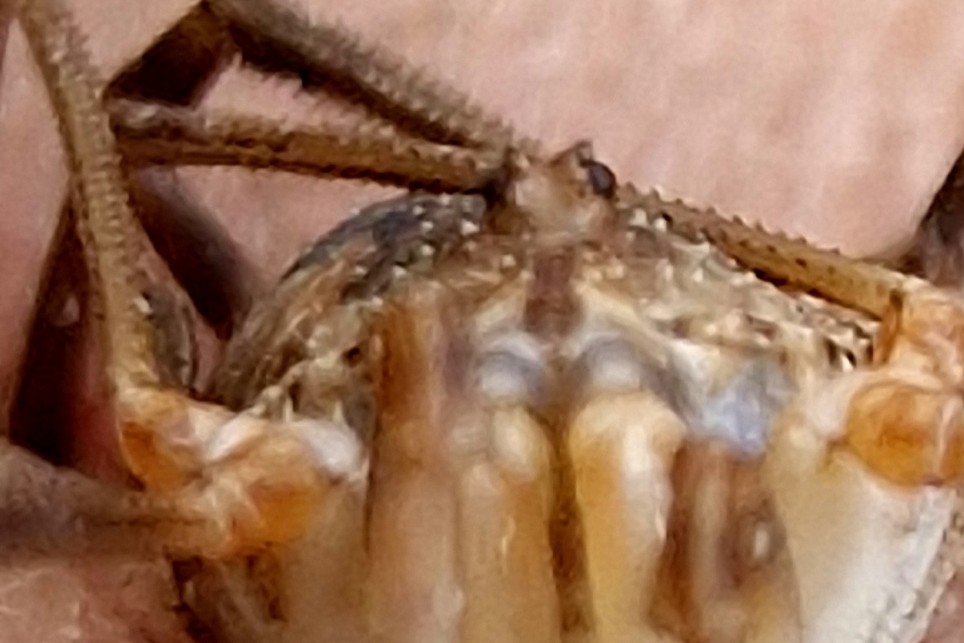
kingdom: Animalia
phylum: Arthropoda
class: Arachnida
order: Opiliones
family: Phalangiidae
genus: Mitopus
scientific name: Mitopus morio
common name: Saddleback harvestman
